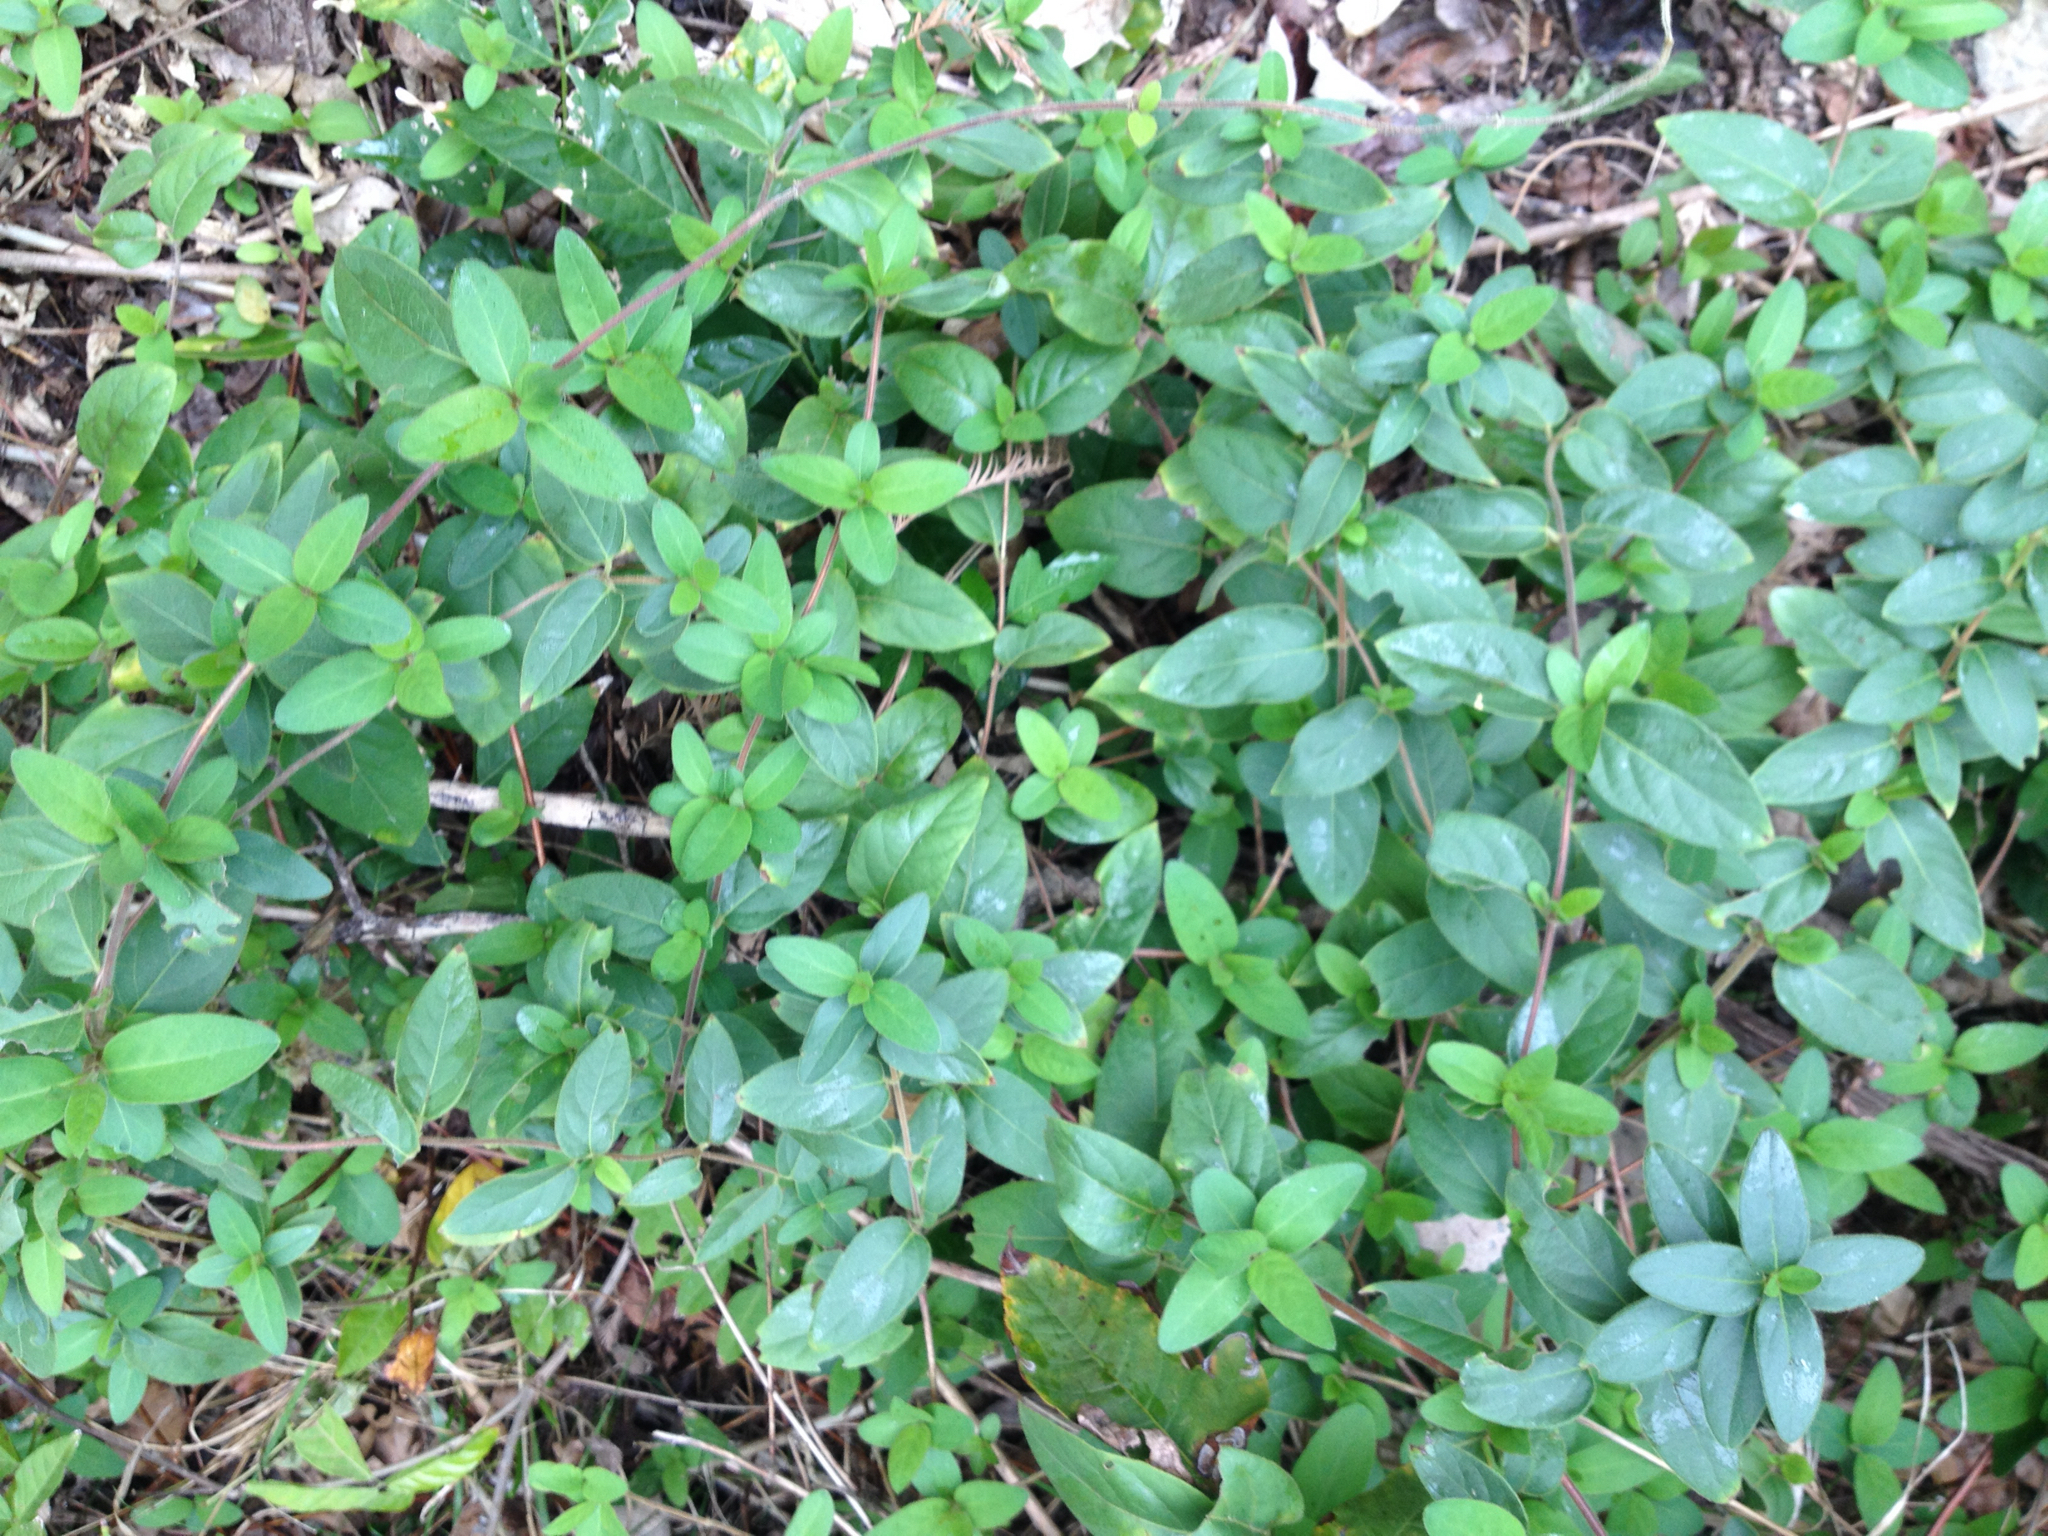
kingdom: Plantae
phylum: Tracheophyta
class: Magnoliopsida
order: Dipsacales
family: Caprifoliaceae
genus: Lonicera
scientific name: Lonicera japonica
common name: Japanese honeysuckle
